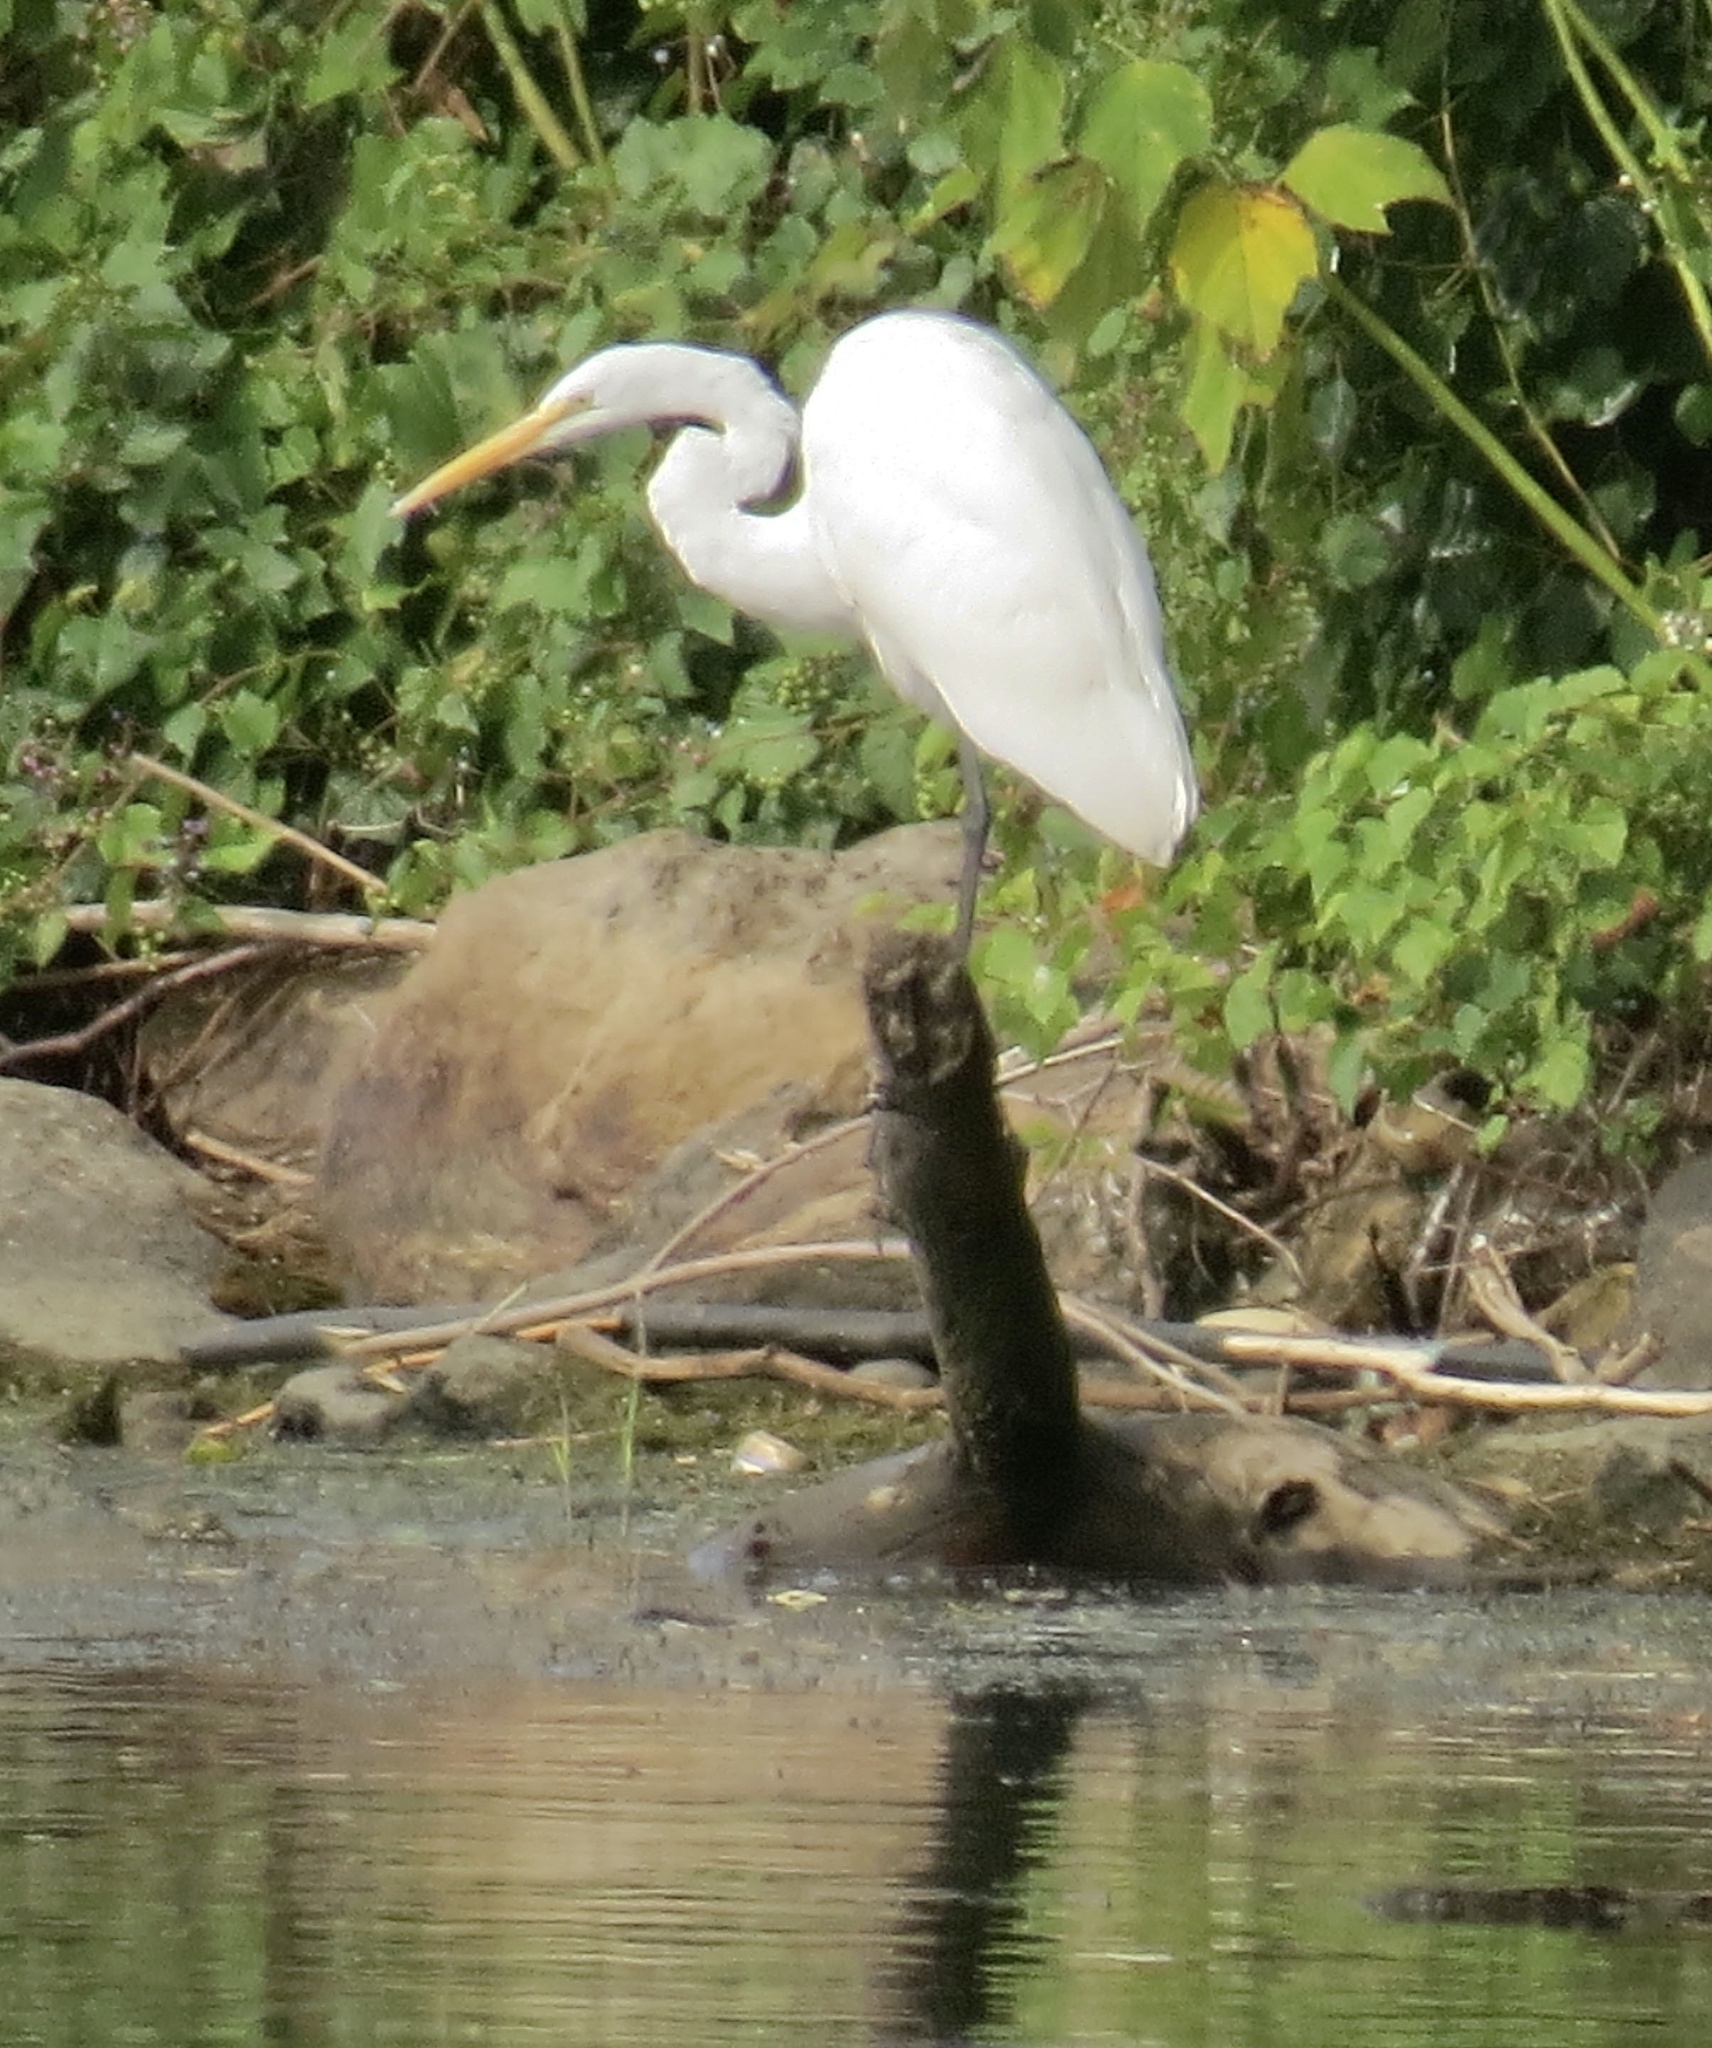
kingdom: Animalia
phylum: Chordata
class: Aves
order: Pelecaniformes
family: Ardeidae
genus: Ardea
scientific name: Ardea alba
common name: Great egret
